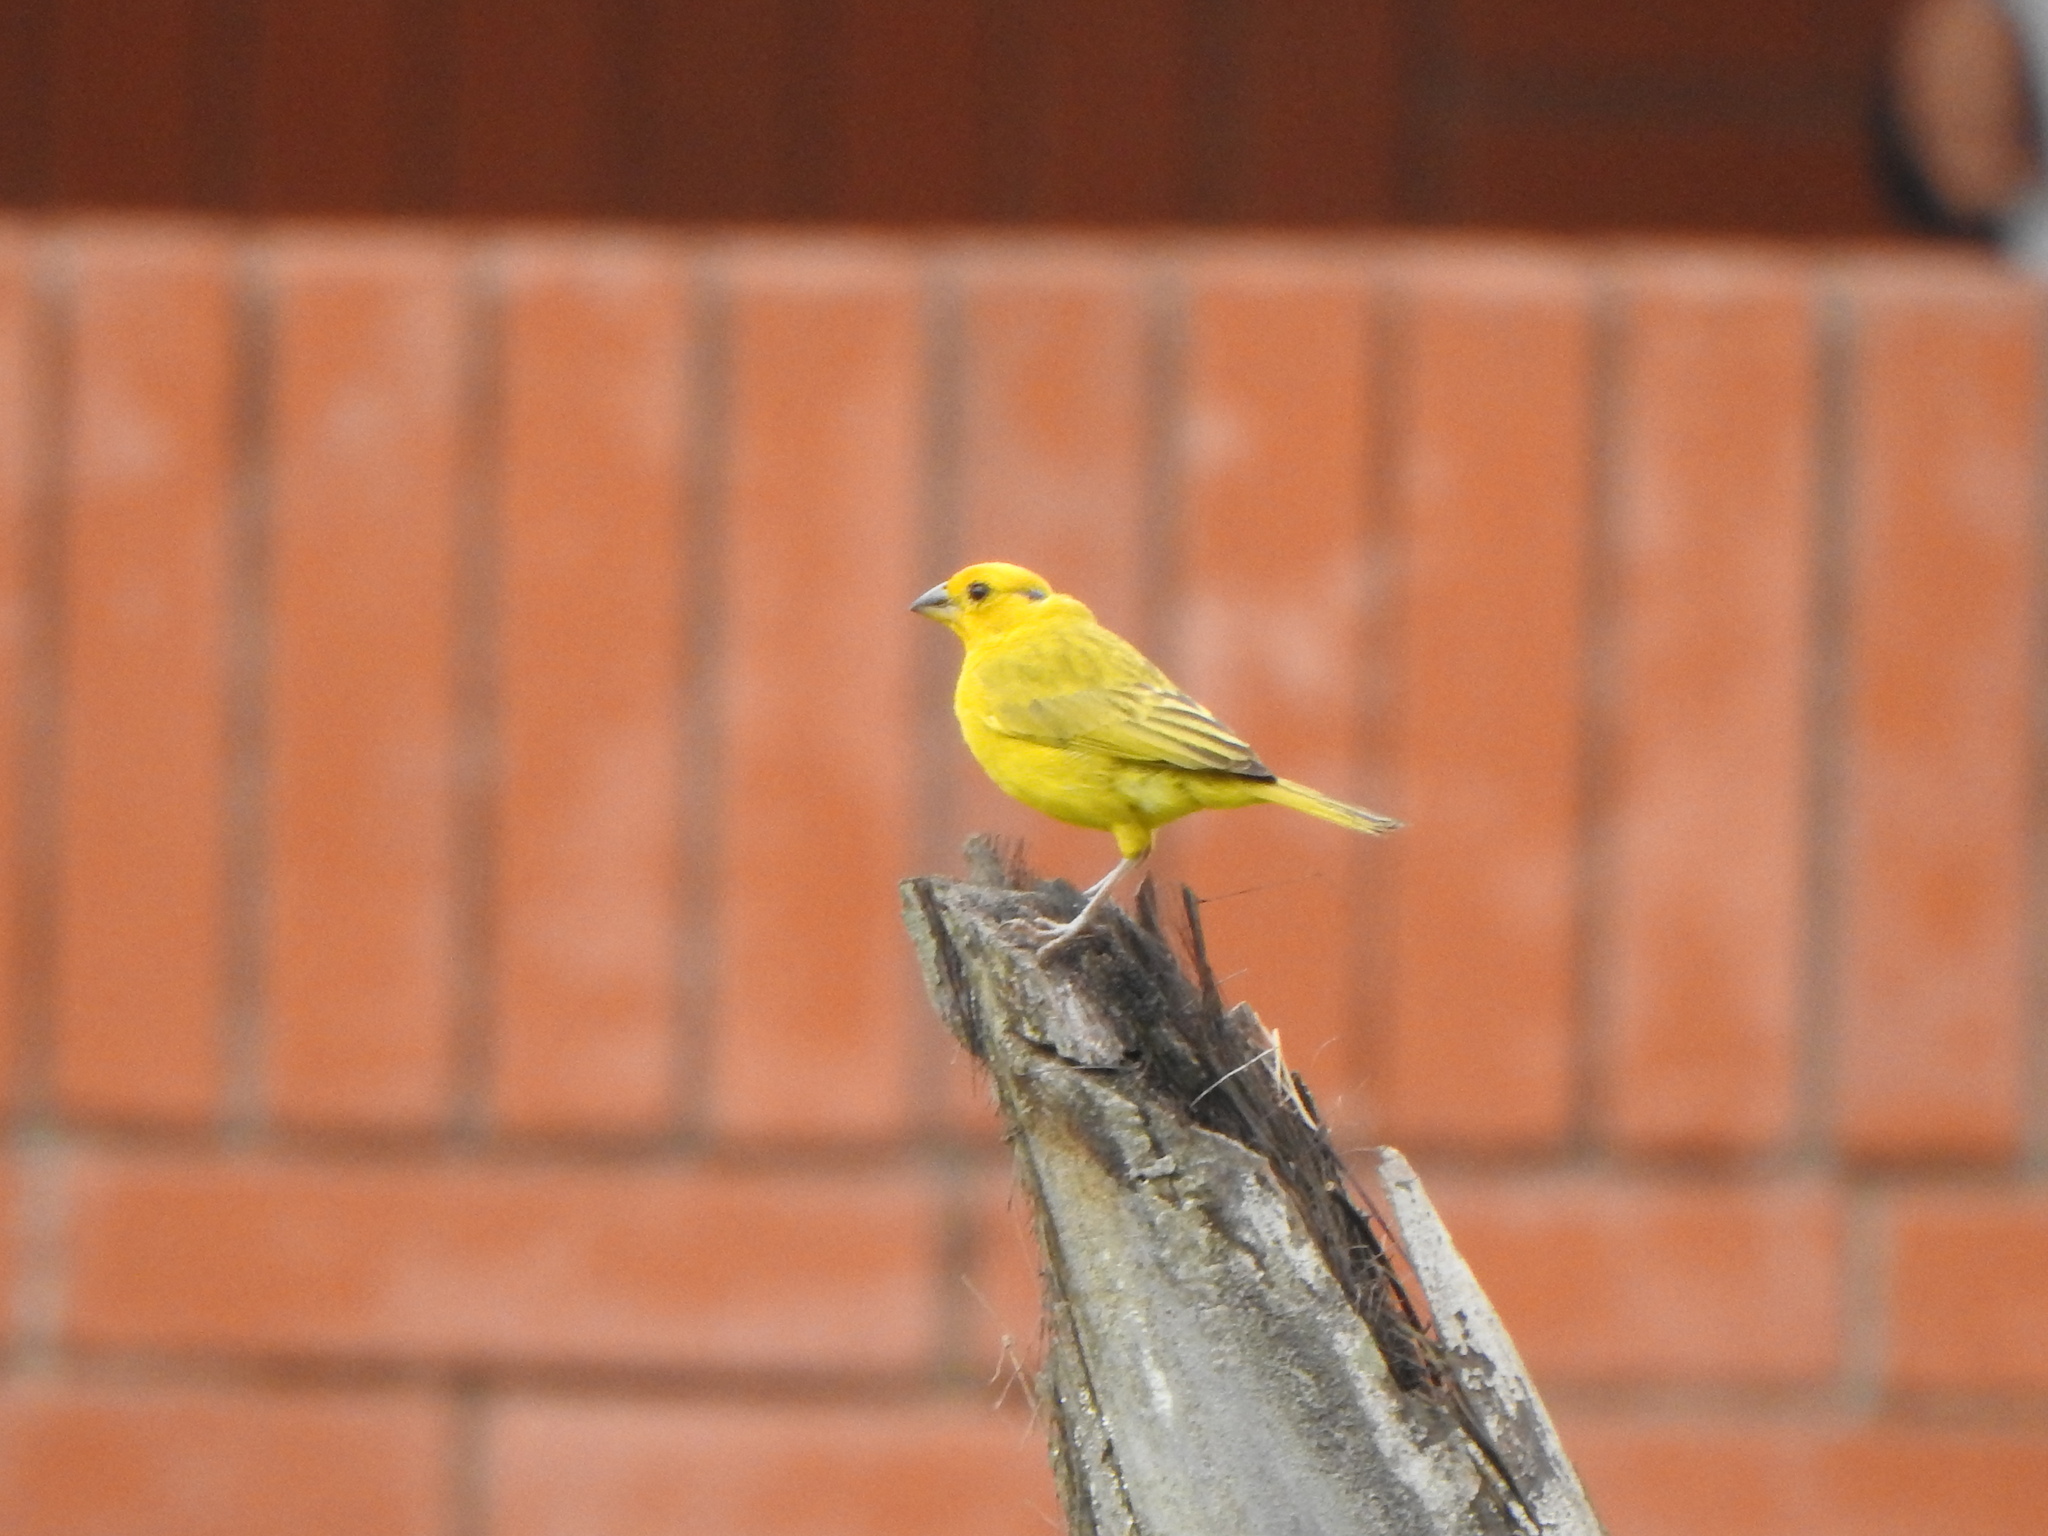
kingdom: Animalia
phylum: Chordata
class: Aves
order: Passeriformes
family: Thraupidae
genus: Sicalis
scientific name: Sicalis flaveola
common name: Saffron finch
